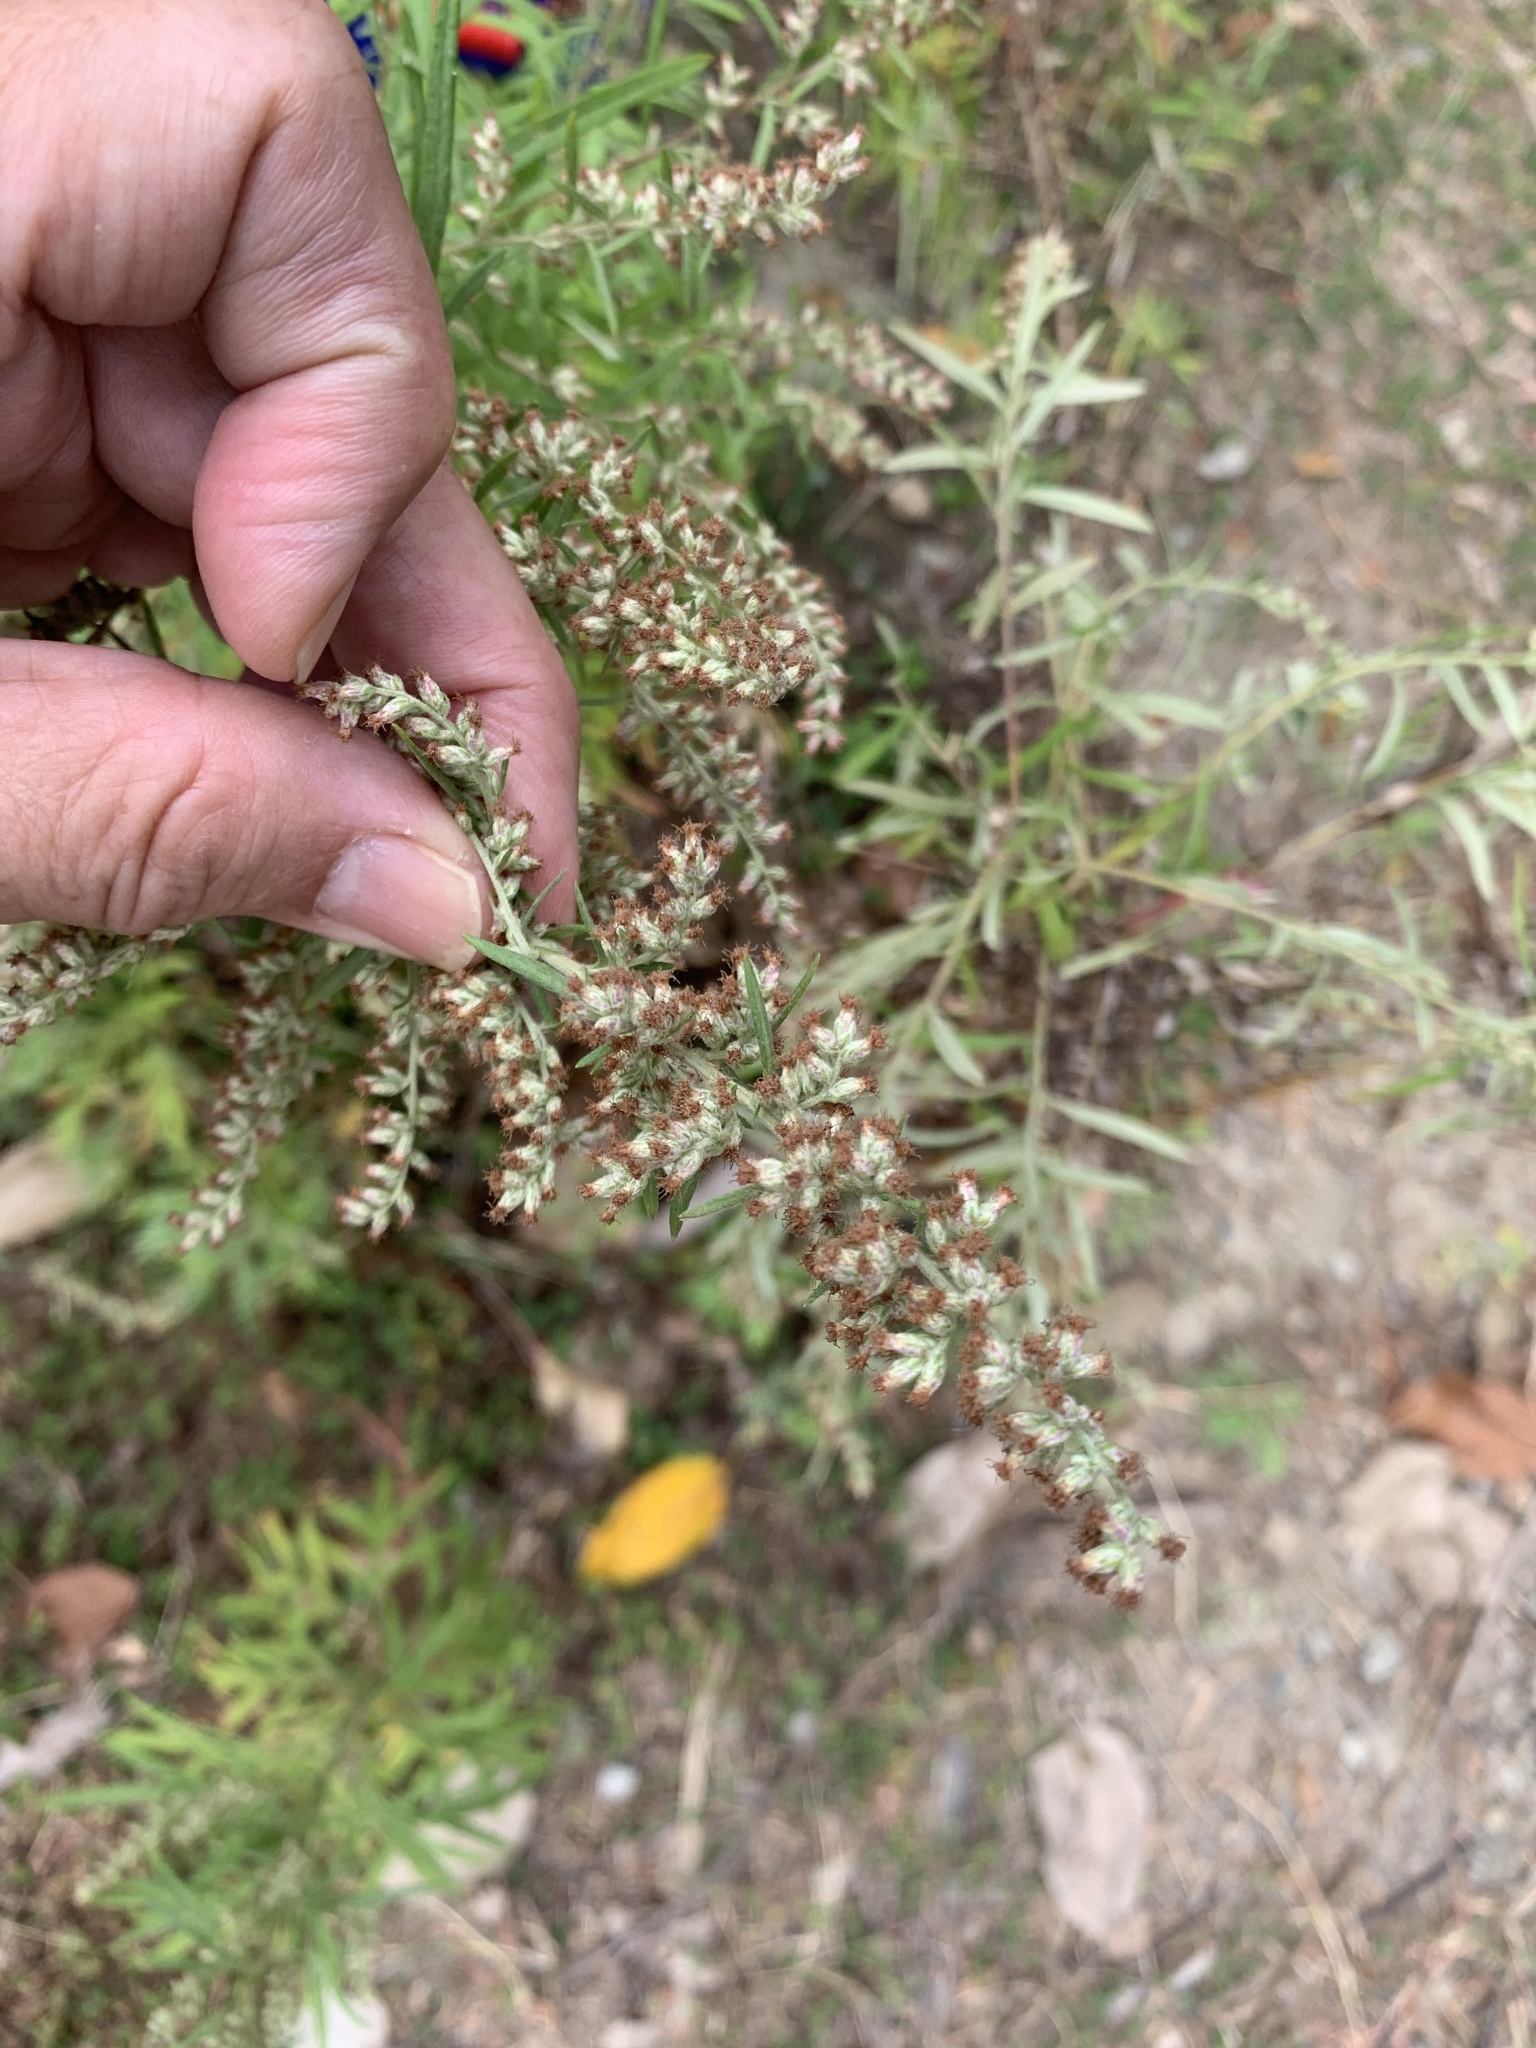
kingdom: Plantae
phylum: Tracheophyta
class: Magnoliopsida
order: Asterales
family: Asteraceae
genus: Artemisia
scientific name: Artemisia indica
